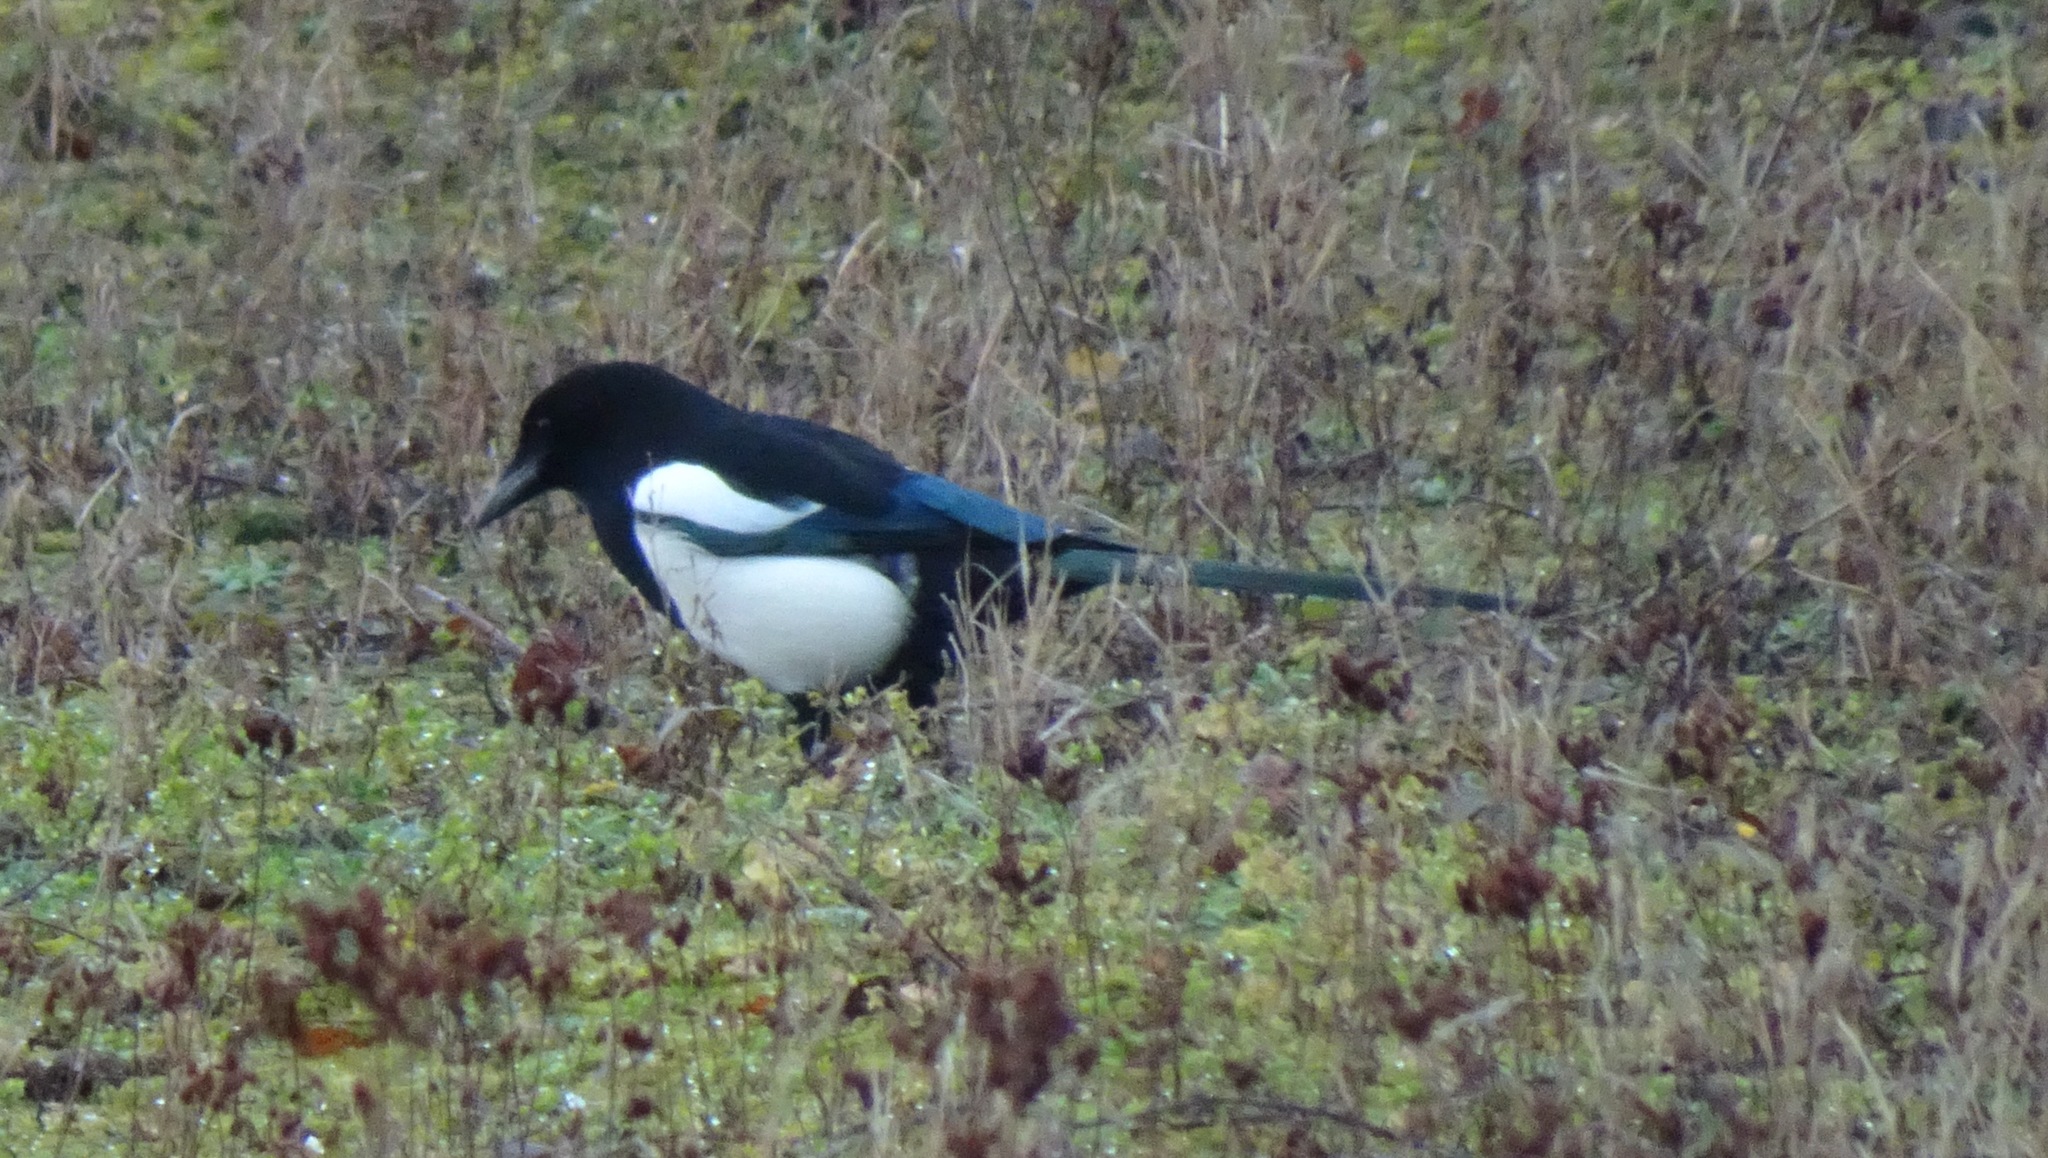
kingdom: Animalia
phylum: Chordata
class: Aves
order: Passeriformes
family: Corvidae
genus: Pica
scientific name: Pica pica
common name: Eurasian magpie
